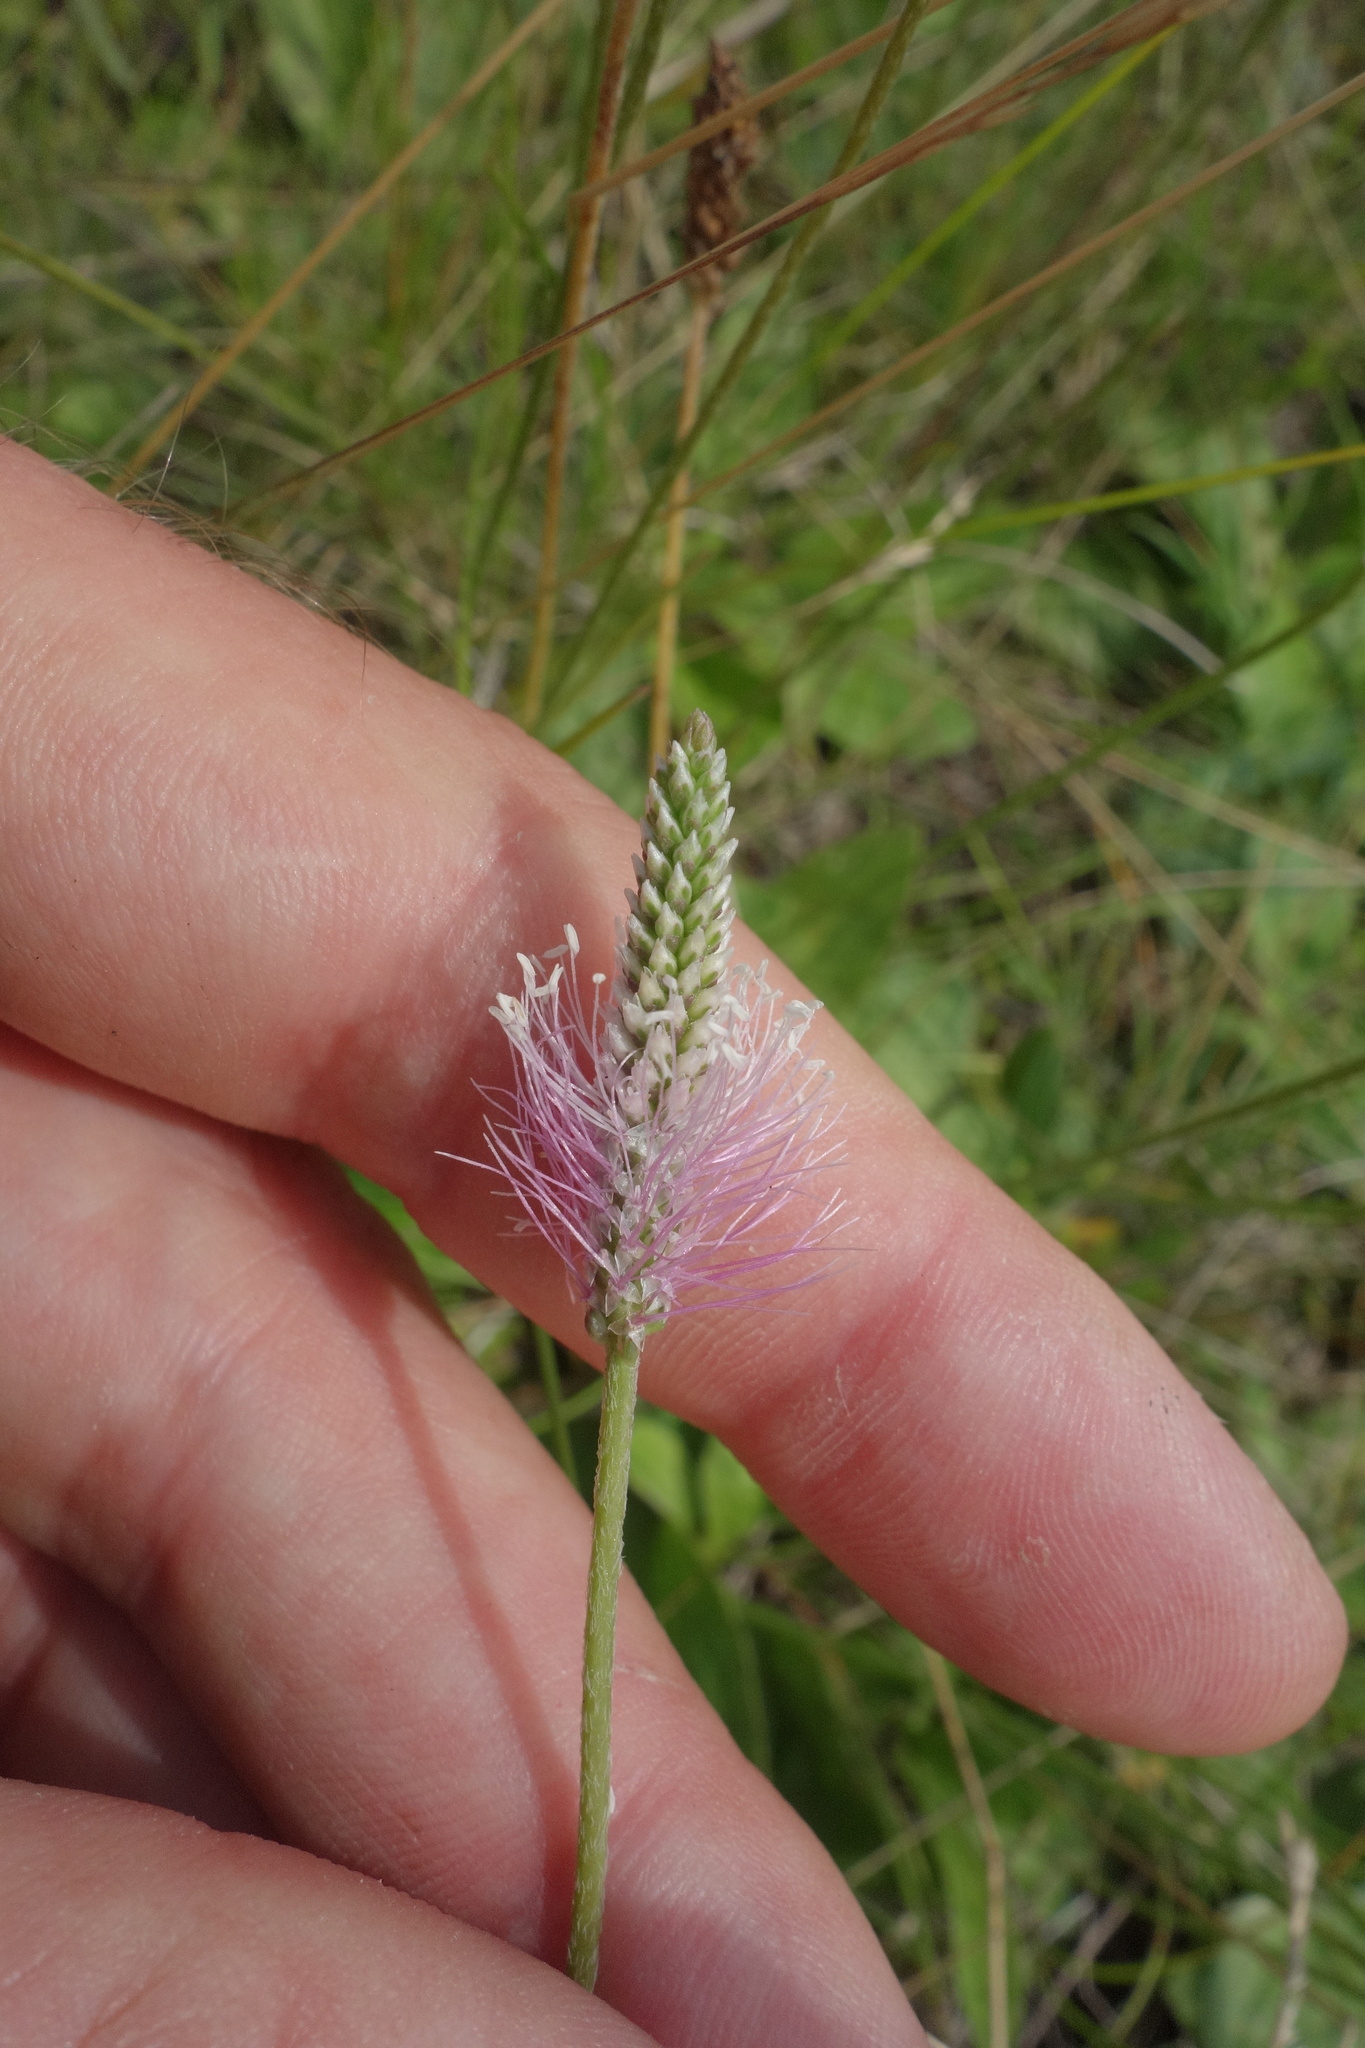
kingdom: Plantae
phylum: Tracheophyta
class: Magnoliopsida
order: Lamiales
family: Plantaginaceae
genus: Plantago
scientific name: Plantago media
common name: Hoary plantain
